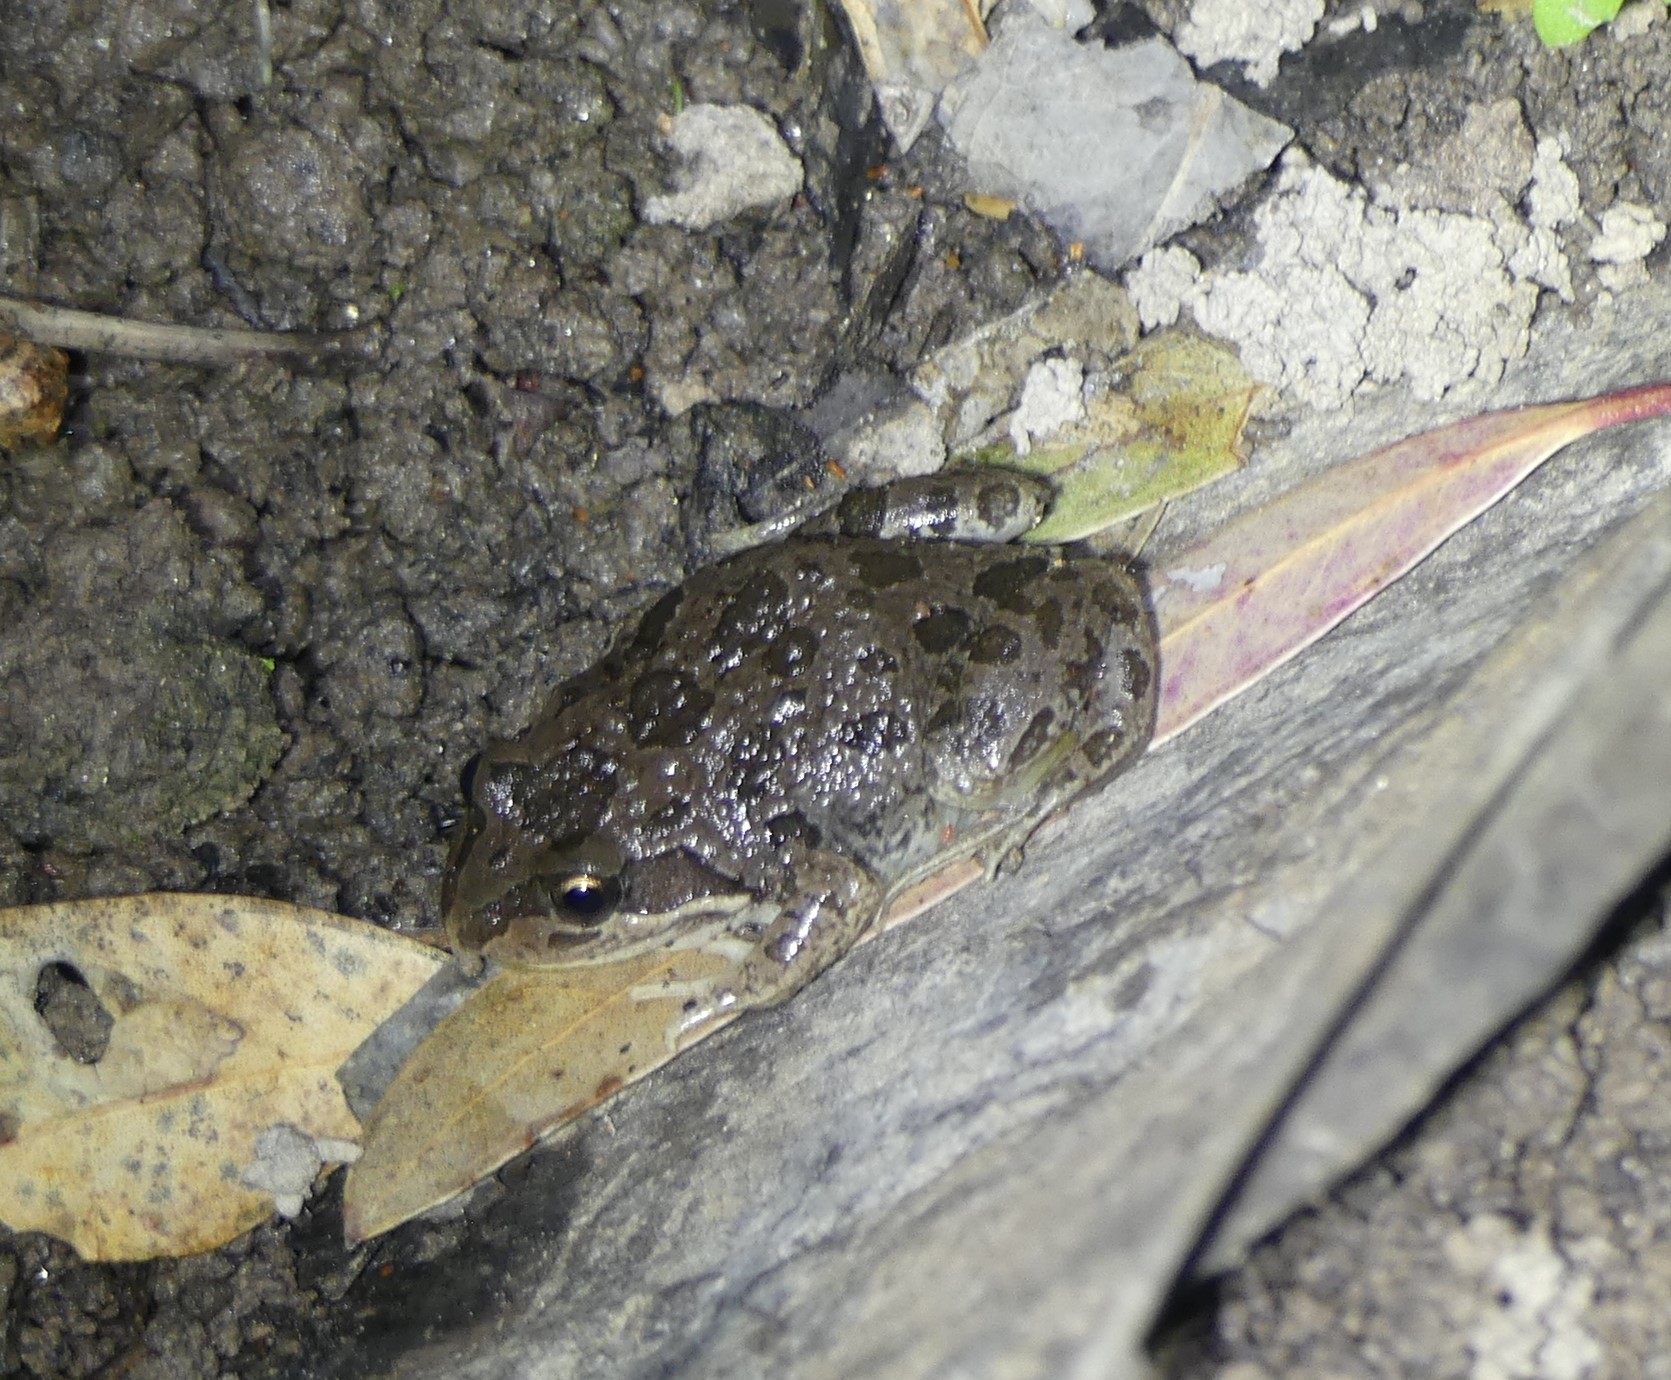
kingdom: Animalia
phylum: Chordata
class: Amphibia
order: Anura
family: Limnodynastidae
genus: Limnodynastes
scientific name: Limnodynastes tasmaniensis
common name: Spotted marsh frog
